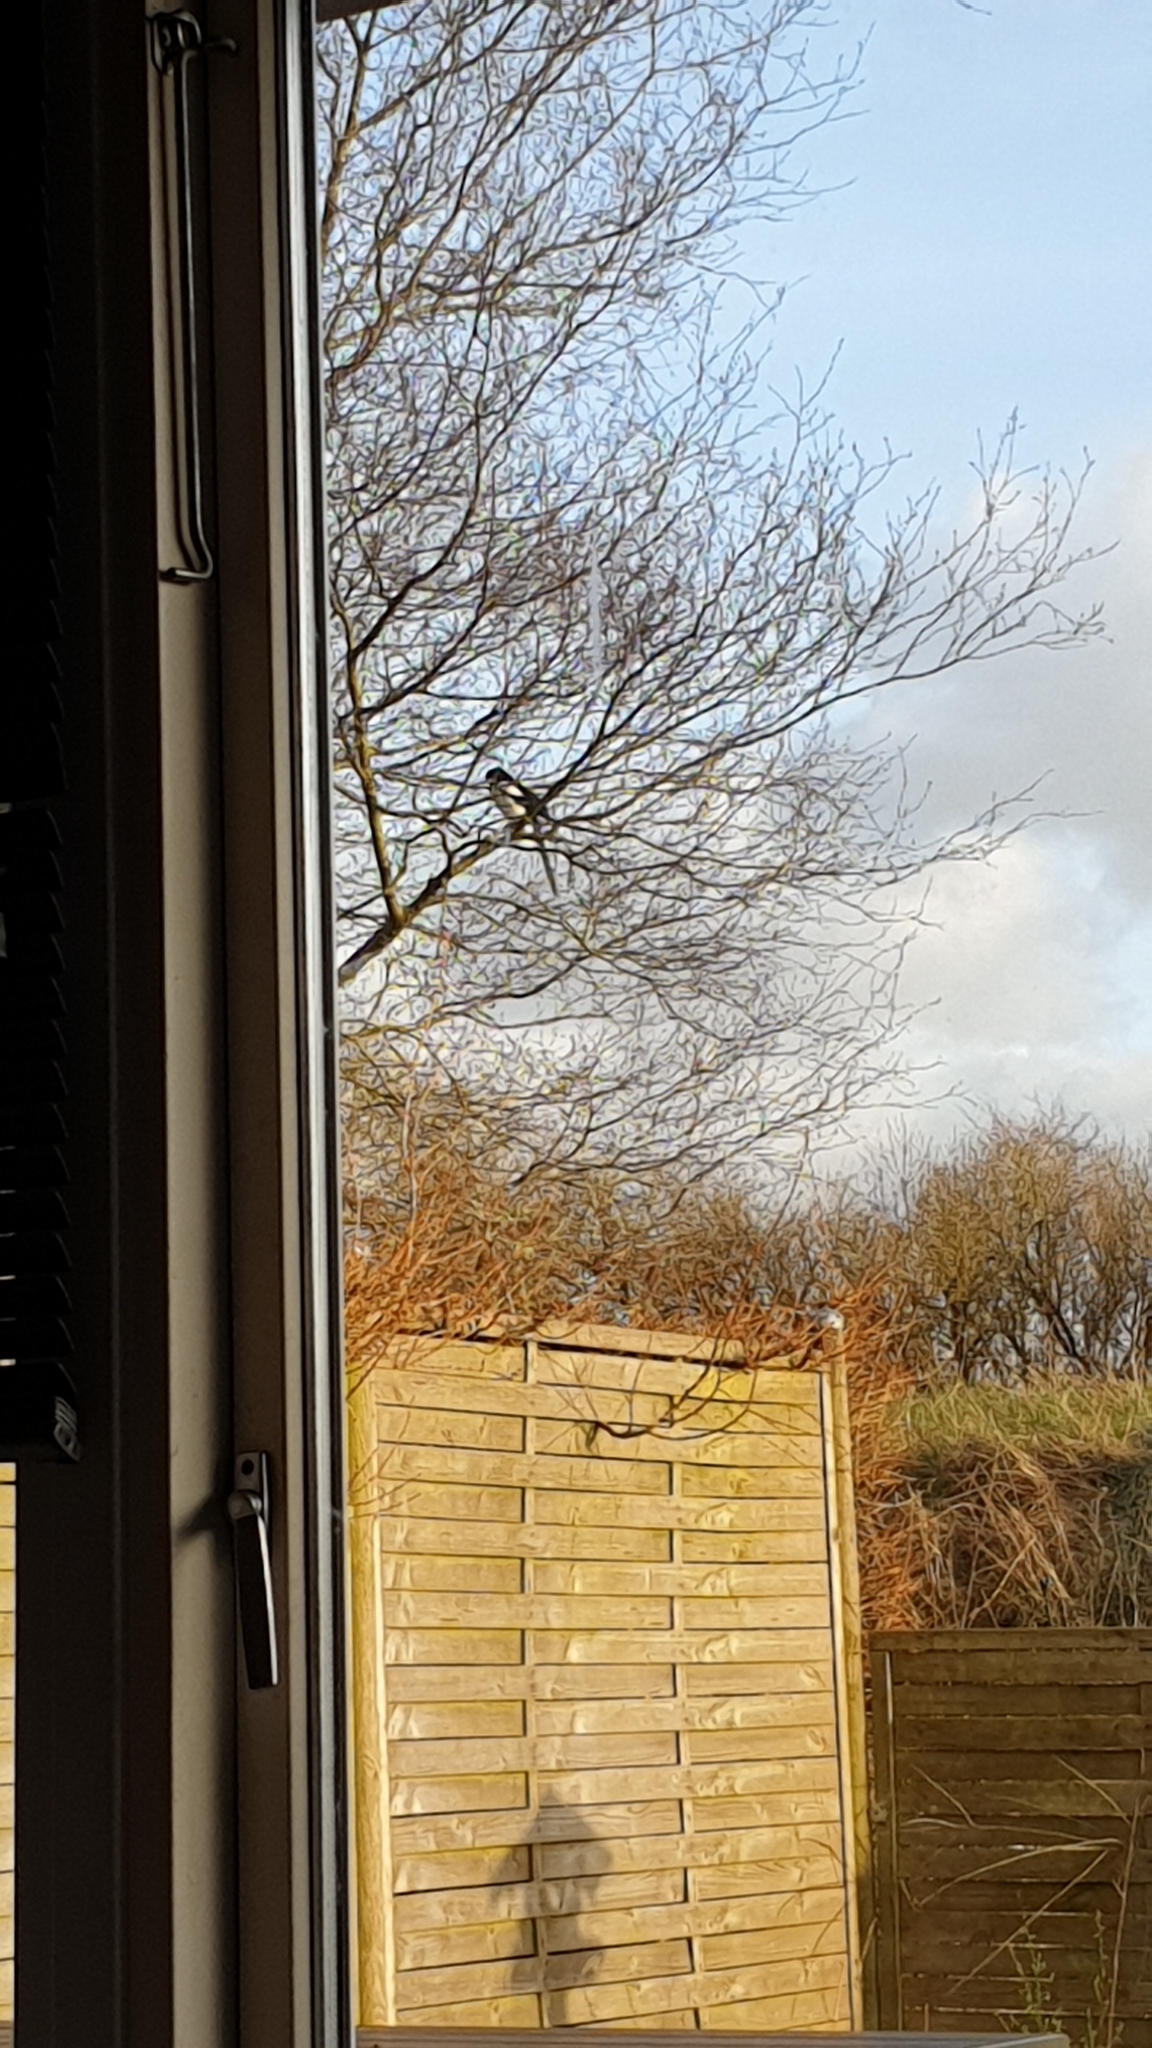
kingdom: Animalia
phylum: Chordata
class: Aves
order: Passeriformes
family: Corvidae
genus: Pica
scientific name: Pica pica
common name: Eurasian magpie
